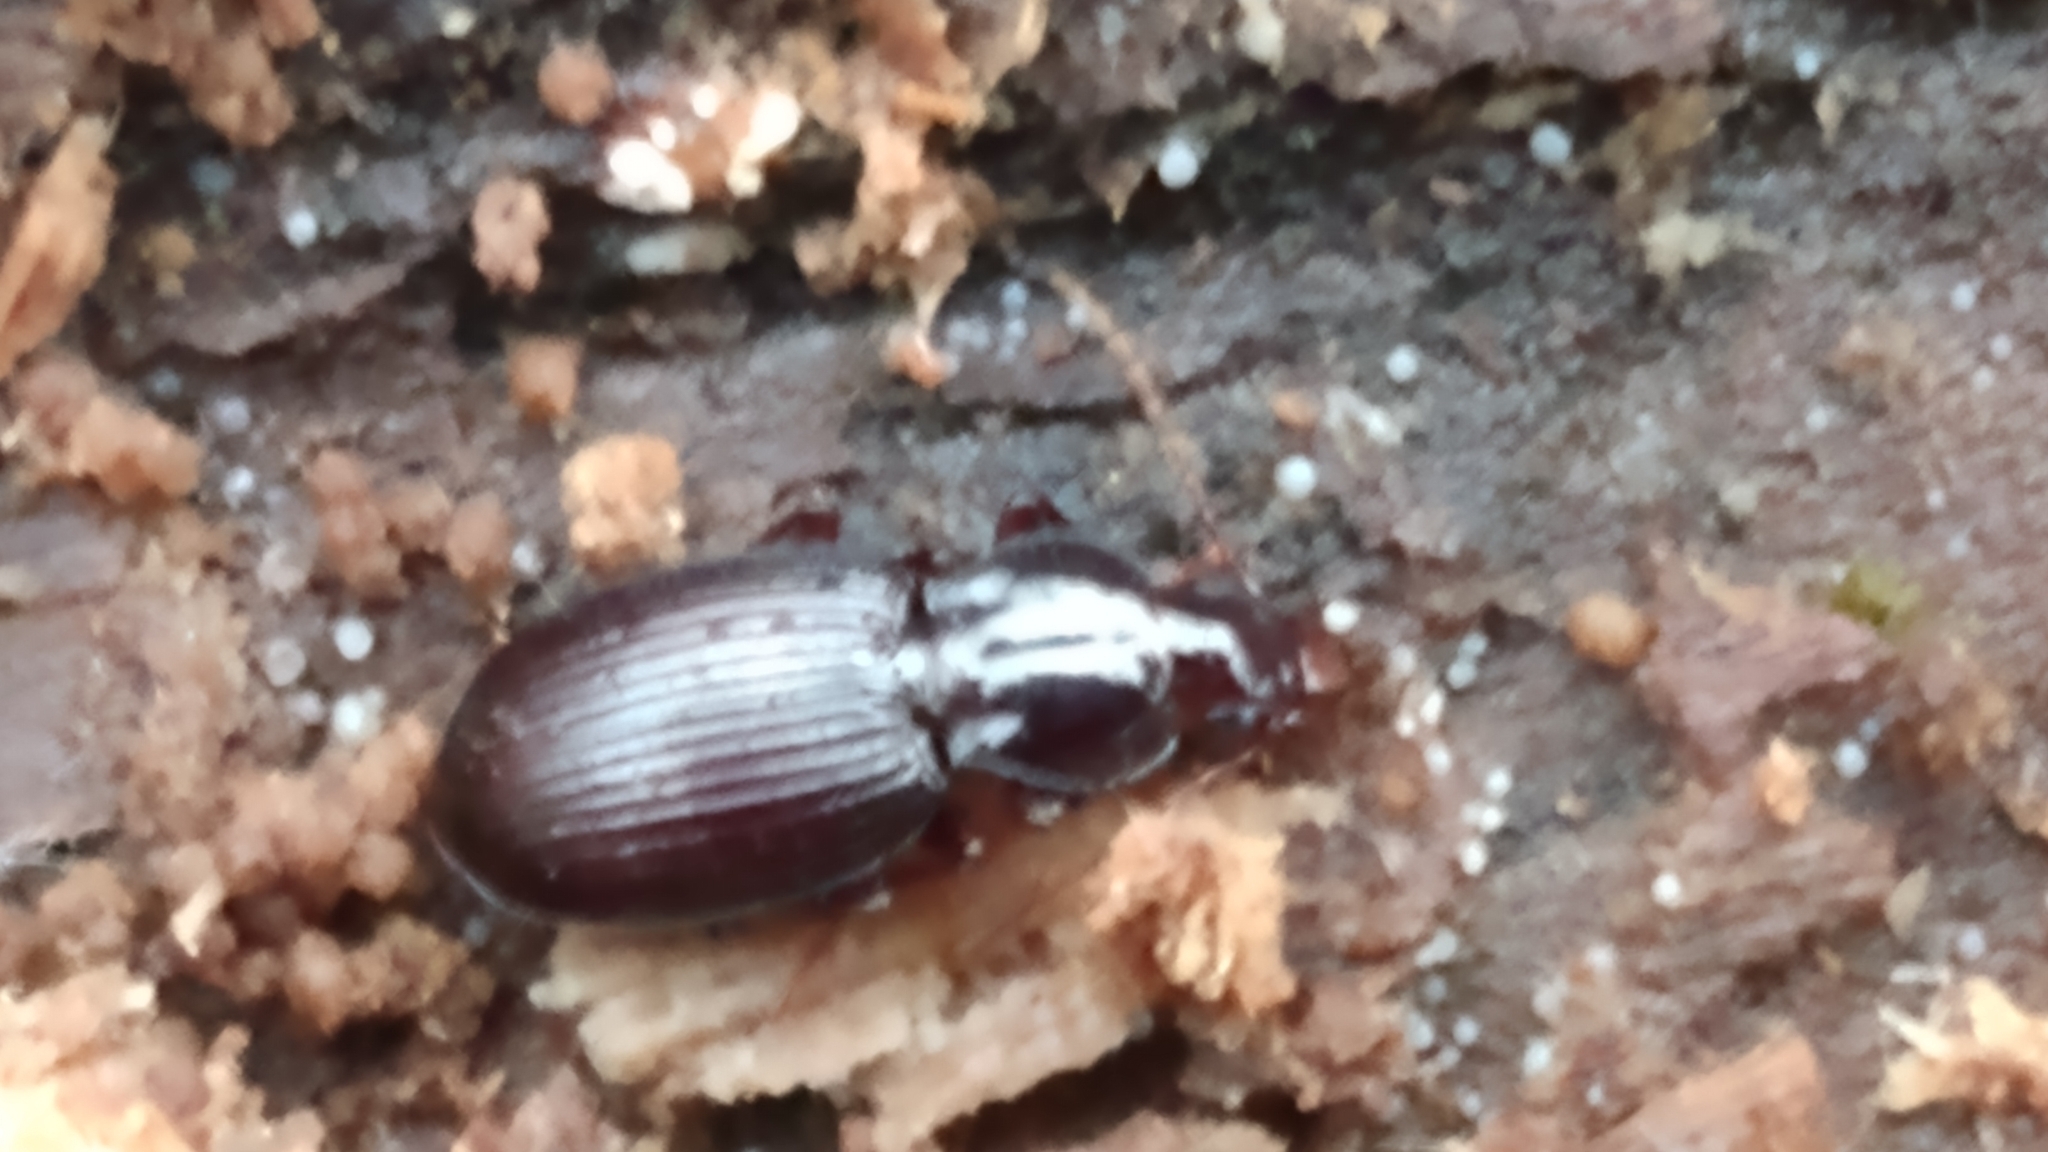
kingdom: Animalia
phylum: Arthropoda
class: Insecta
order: Coleoptera
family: Carabidae
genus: Gastrellarius
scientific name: Gastrellarius honestus
